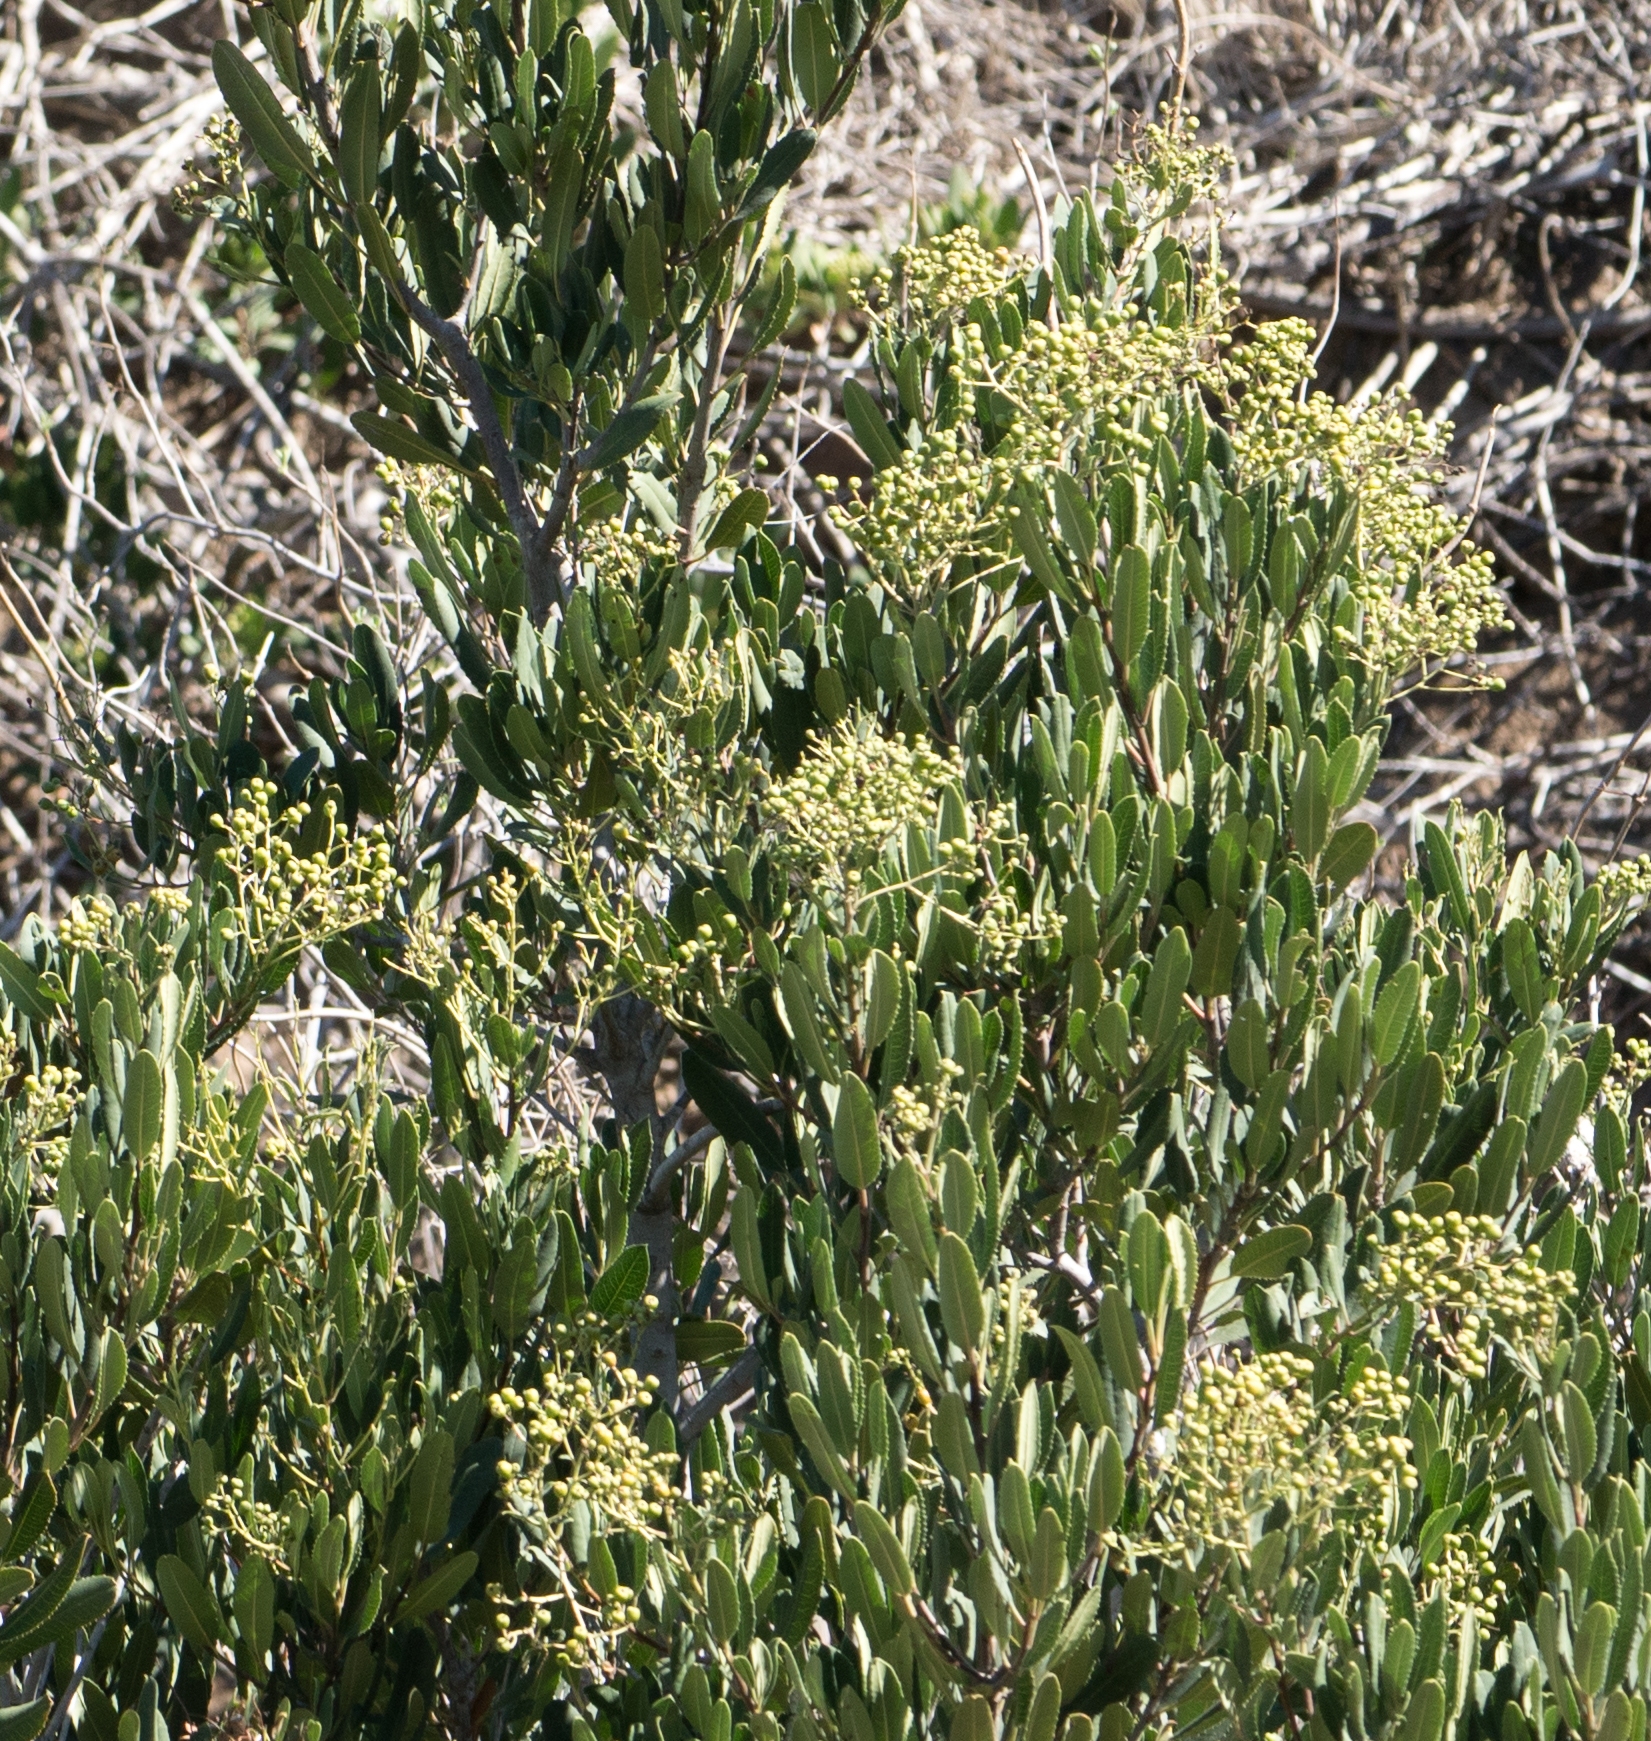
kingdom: Plantae
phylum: Tracheophyta
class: Magnoliopsida
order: Rosales
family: Rosaceae
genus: Heteromeles
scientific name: Heteromeles arbutifolia
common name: California-holly
